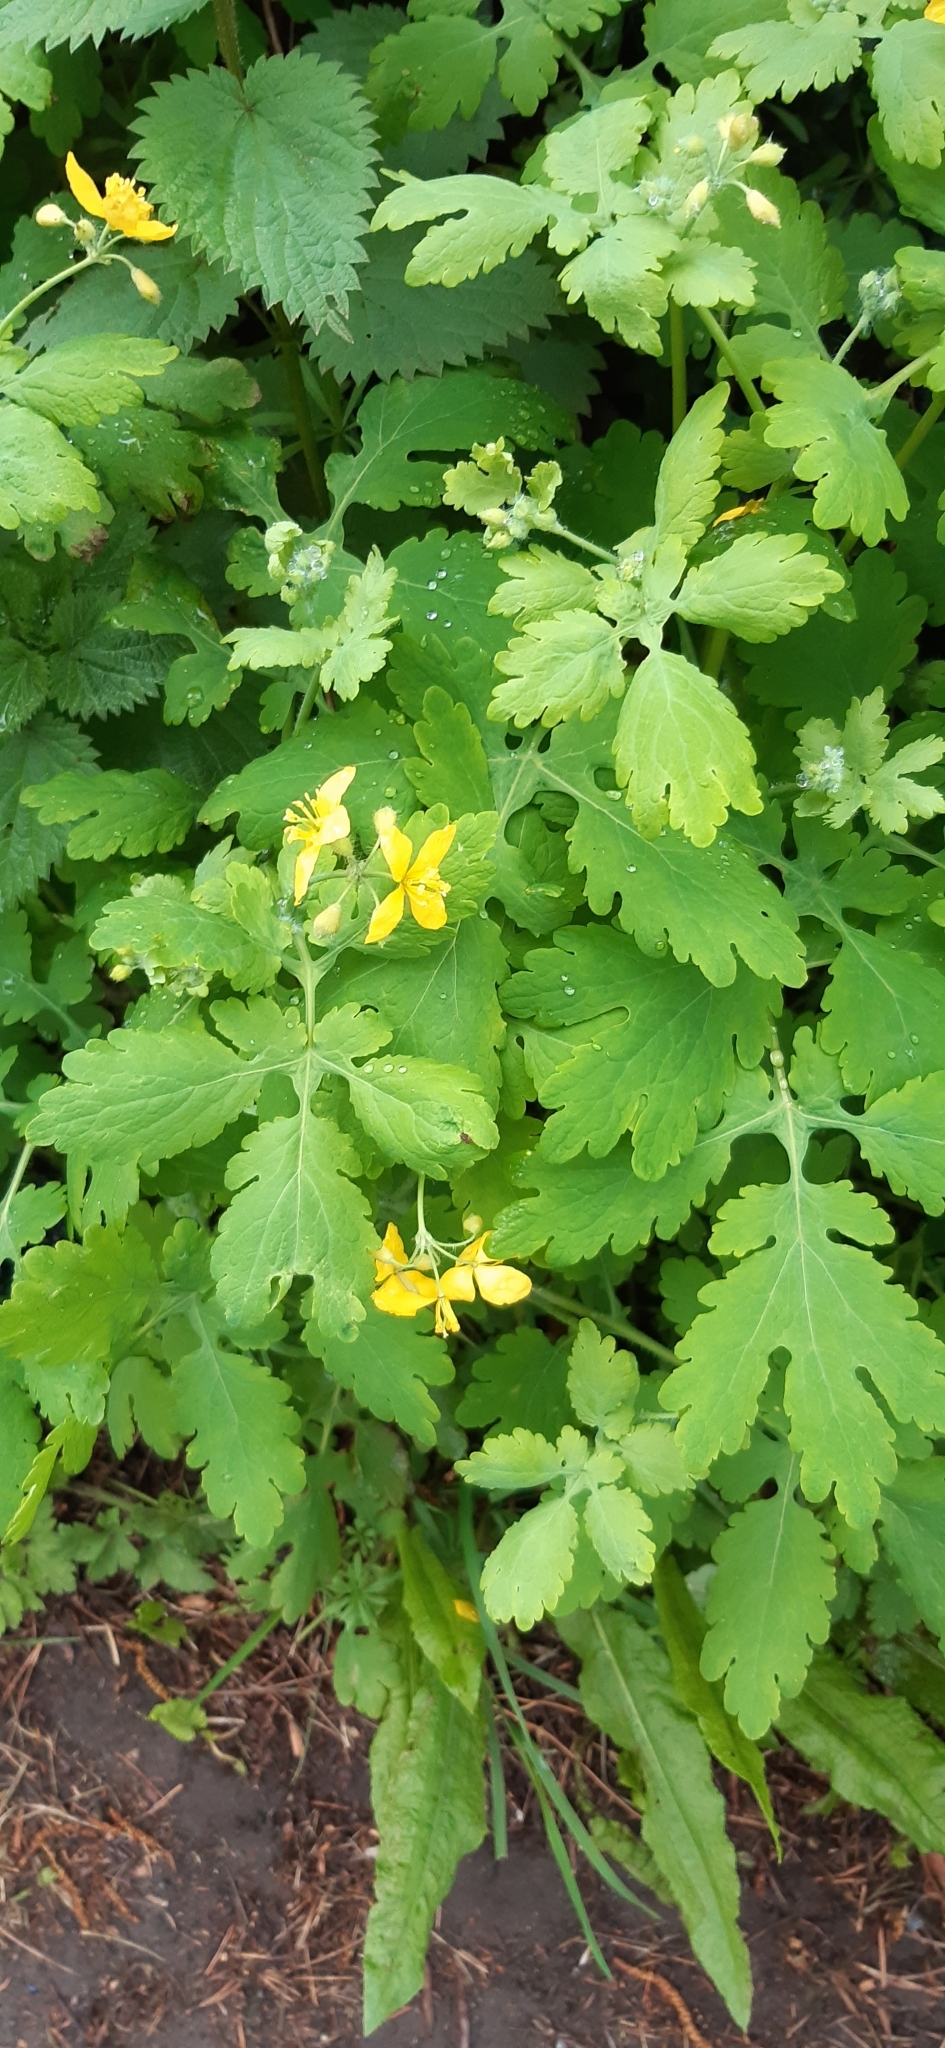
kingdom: Plantae
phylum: Tracheophyta
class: Magnoliopsida
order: Ranunculales
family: Papaveraceae
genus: Chelidonium
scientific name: Chelidonium majus
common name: Greater celandine
